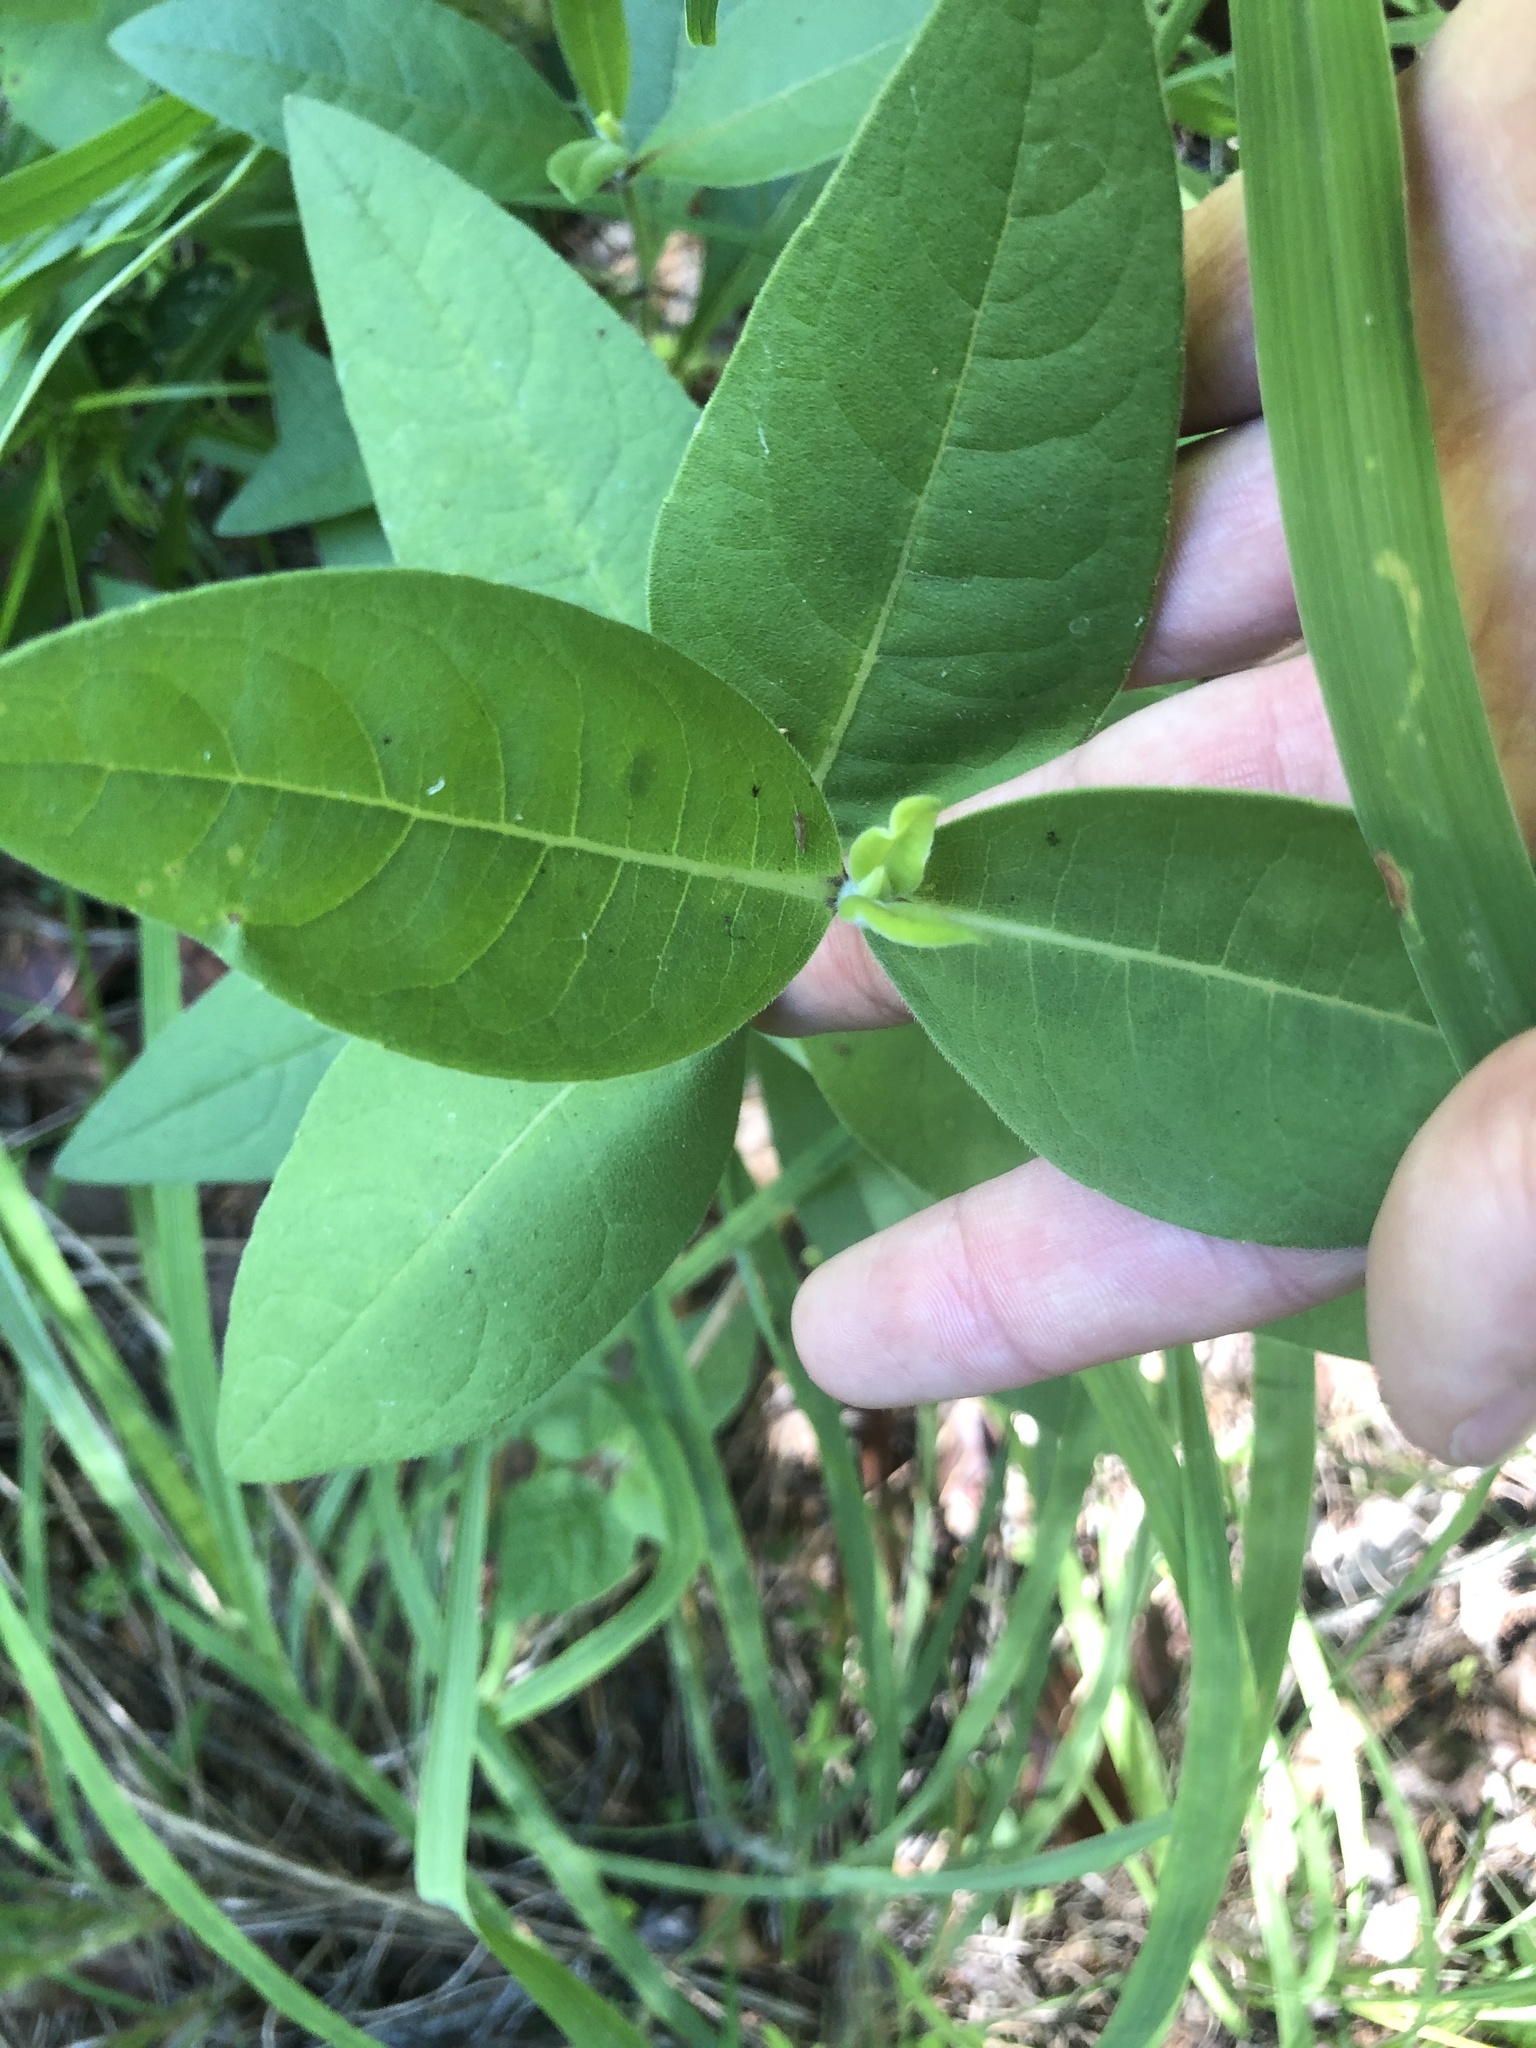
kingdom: Plantae
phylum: Tracheophyta
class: Magnoliopsida
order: Asterales
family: Asteraceae
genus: Silphium
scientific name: Silphium integrifolium
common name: Whole-leaf rosinweed
